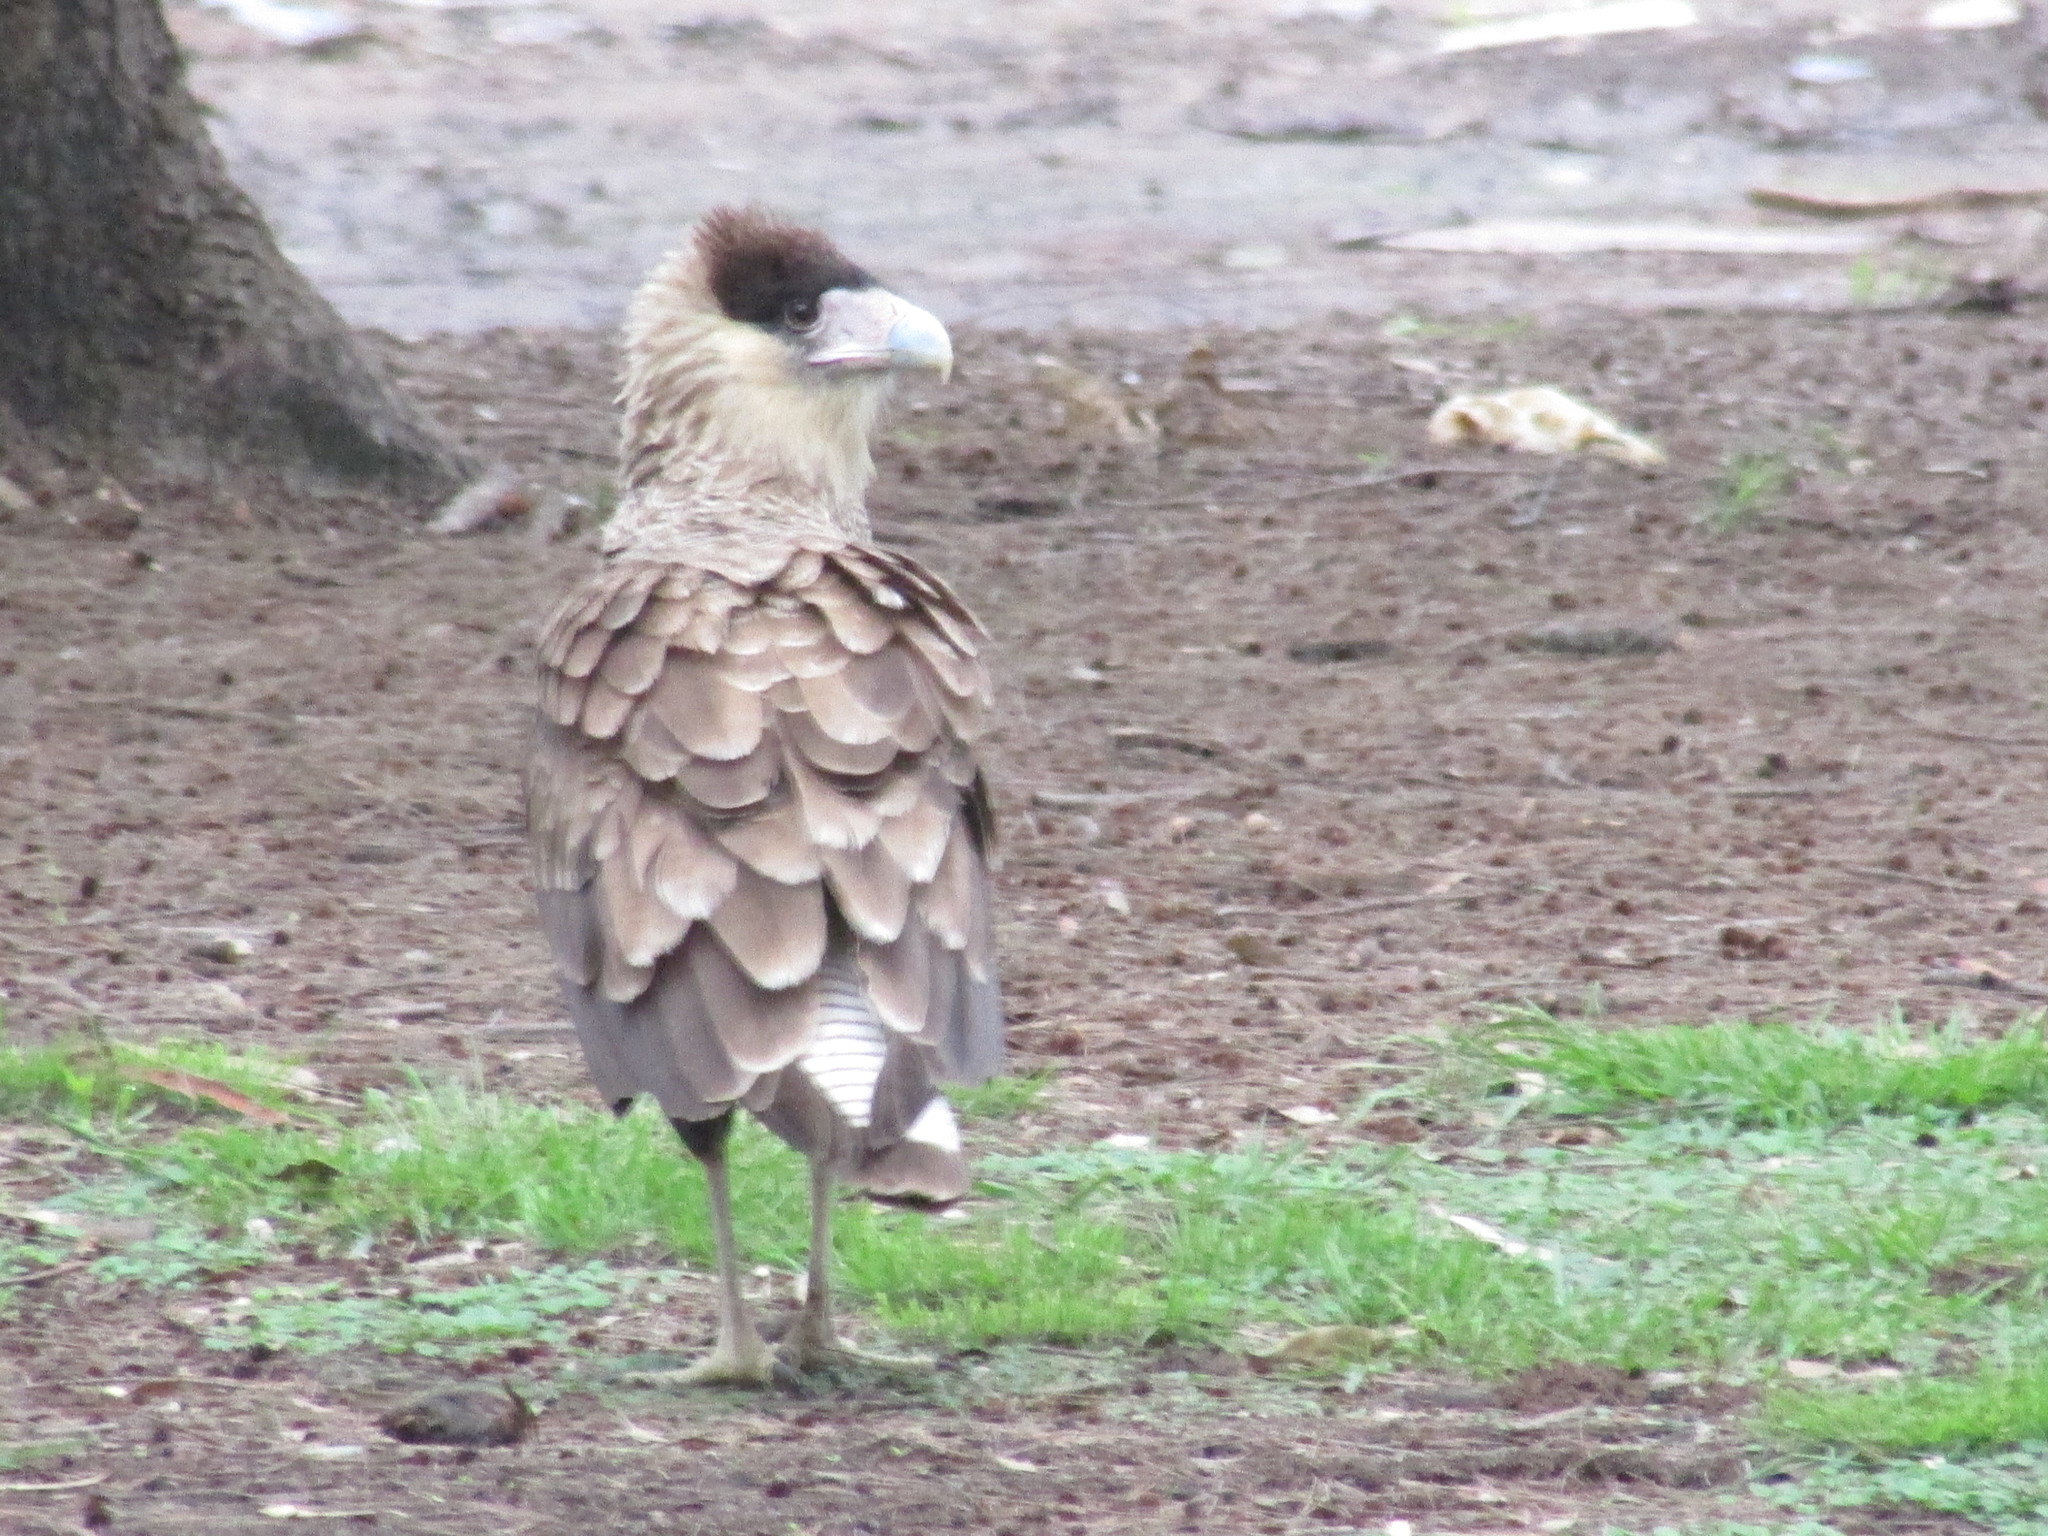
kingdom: Animalia
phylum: Chordata
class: Aves
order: Falconiformes
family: Falconidae
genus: Caracara
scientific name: Caracara plancus
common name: Southern caracara
